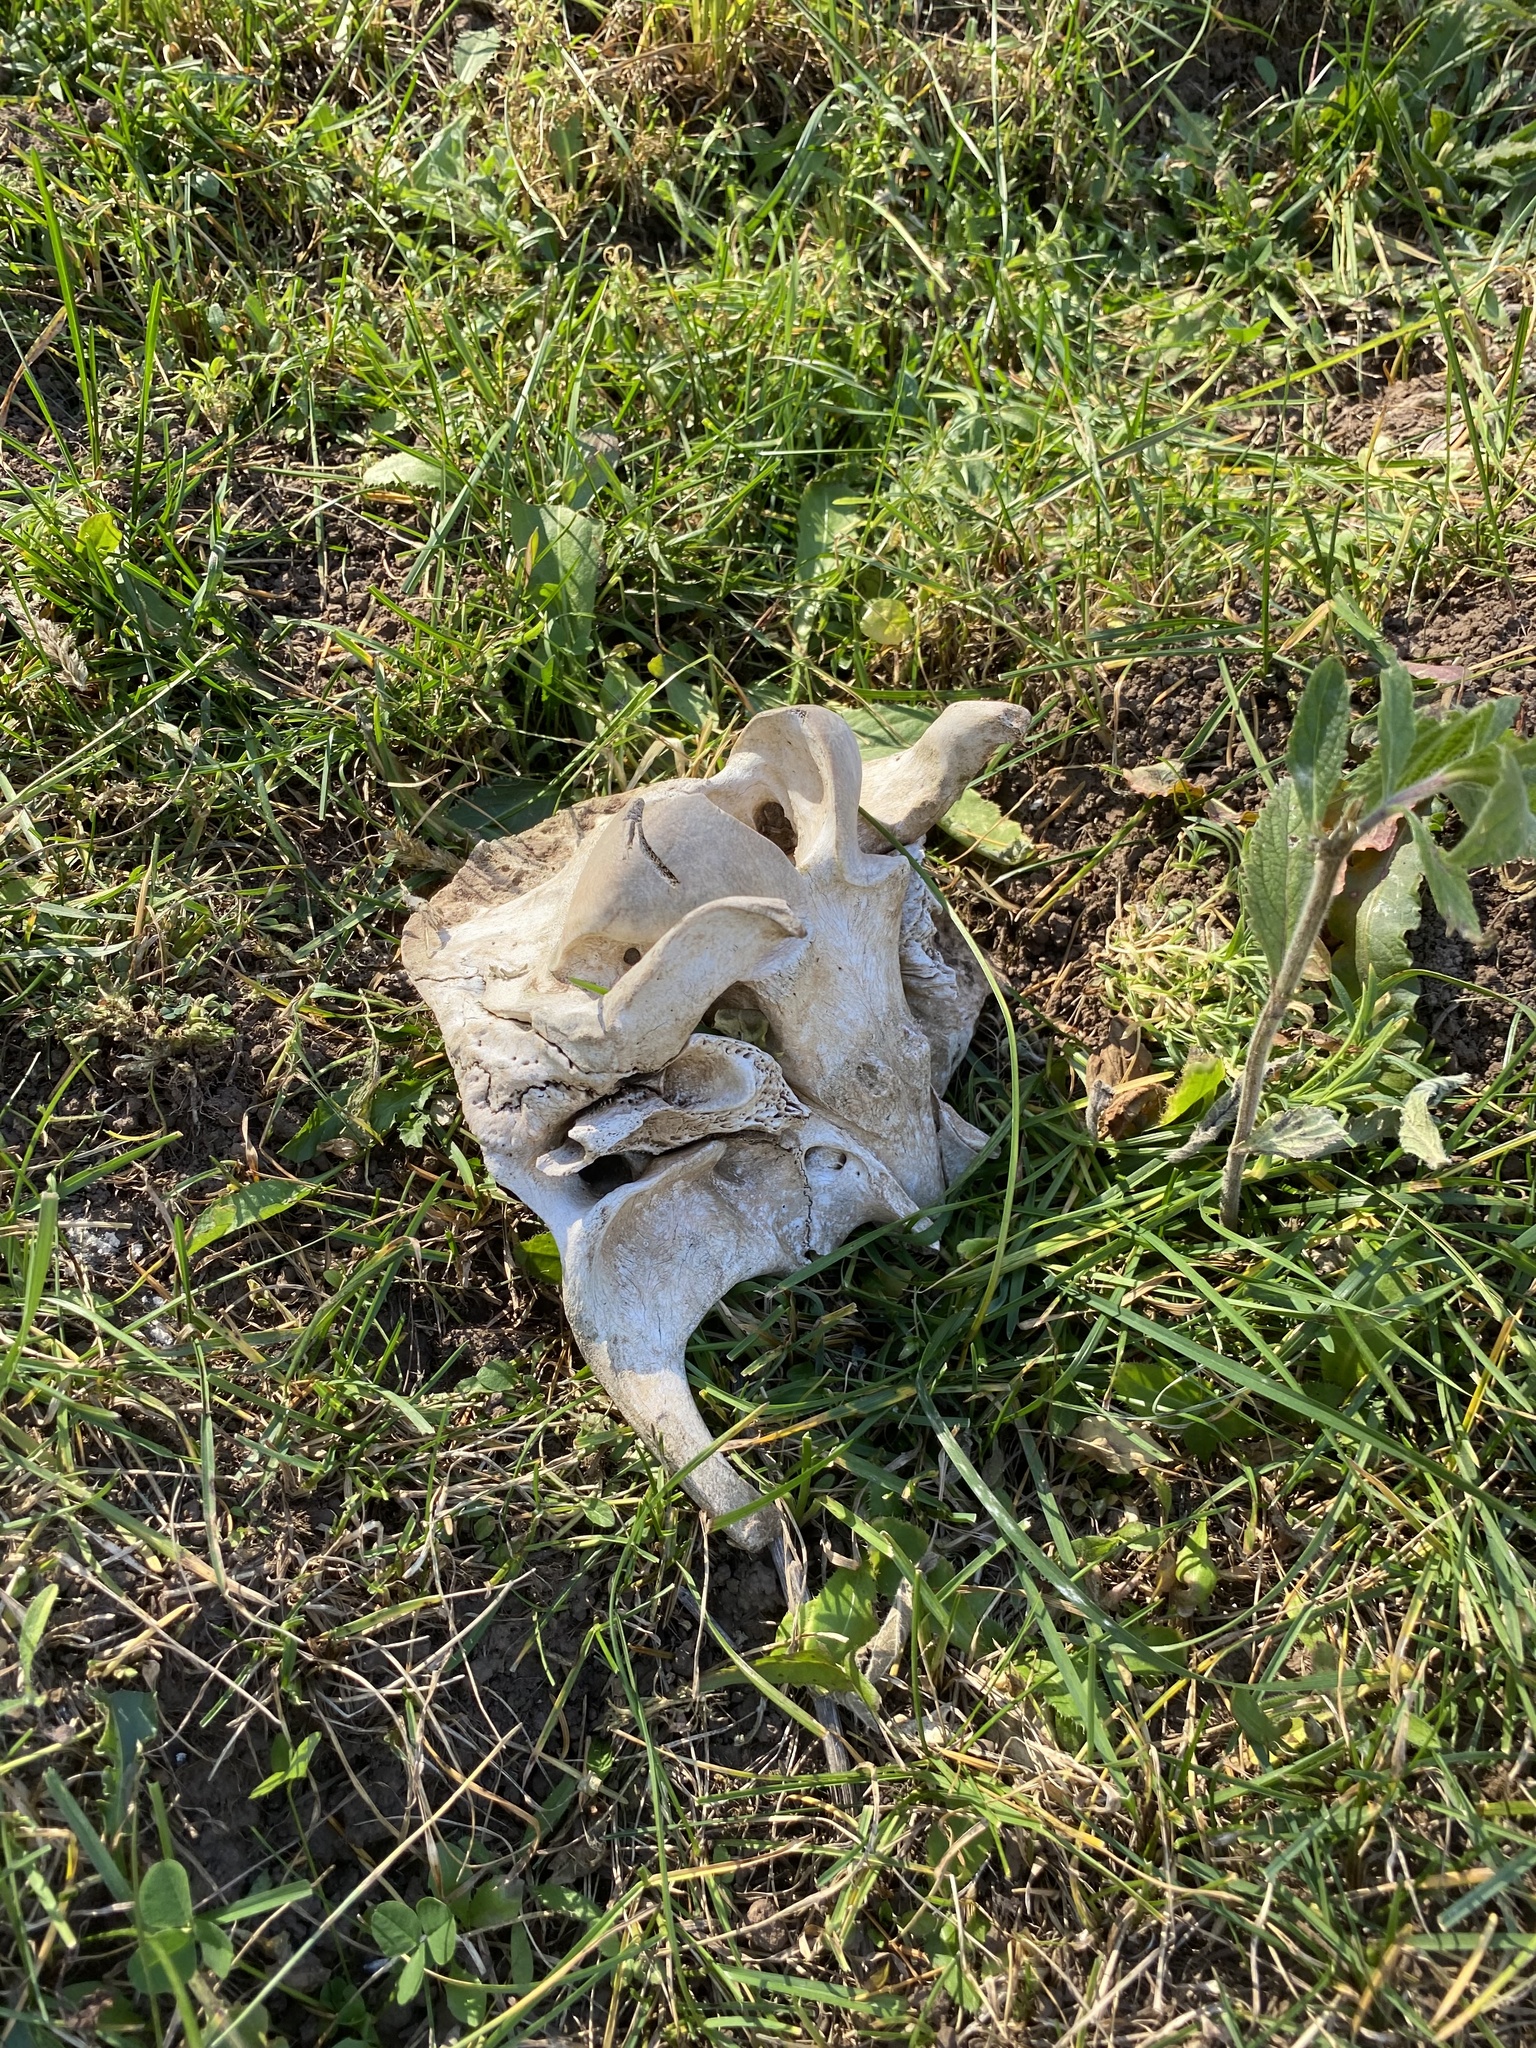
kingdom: Animalia
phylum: Chordata
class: Mammalia
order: Artiodactyla
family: Cervidae
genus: Cervus
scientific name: Cervus elaphus
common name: Red deer
